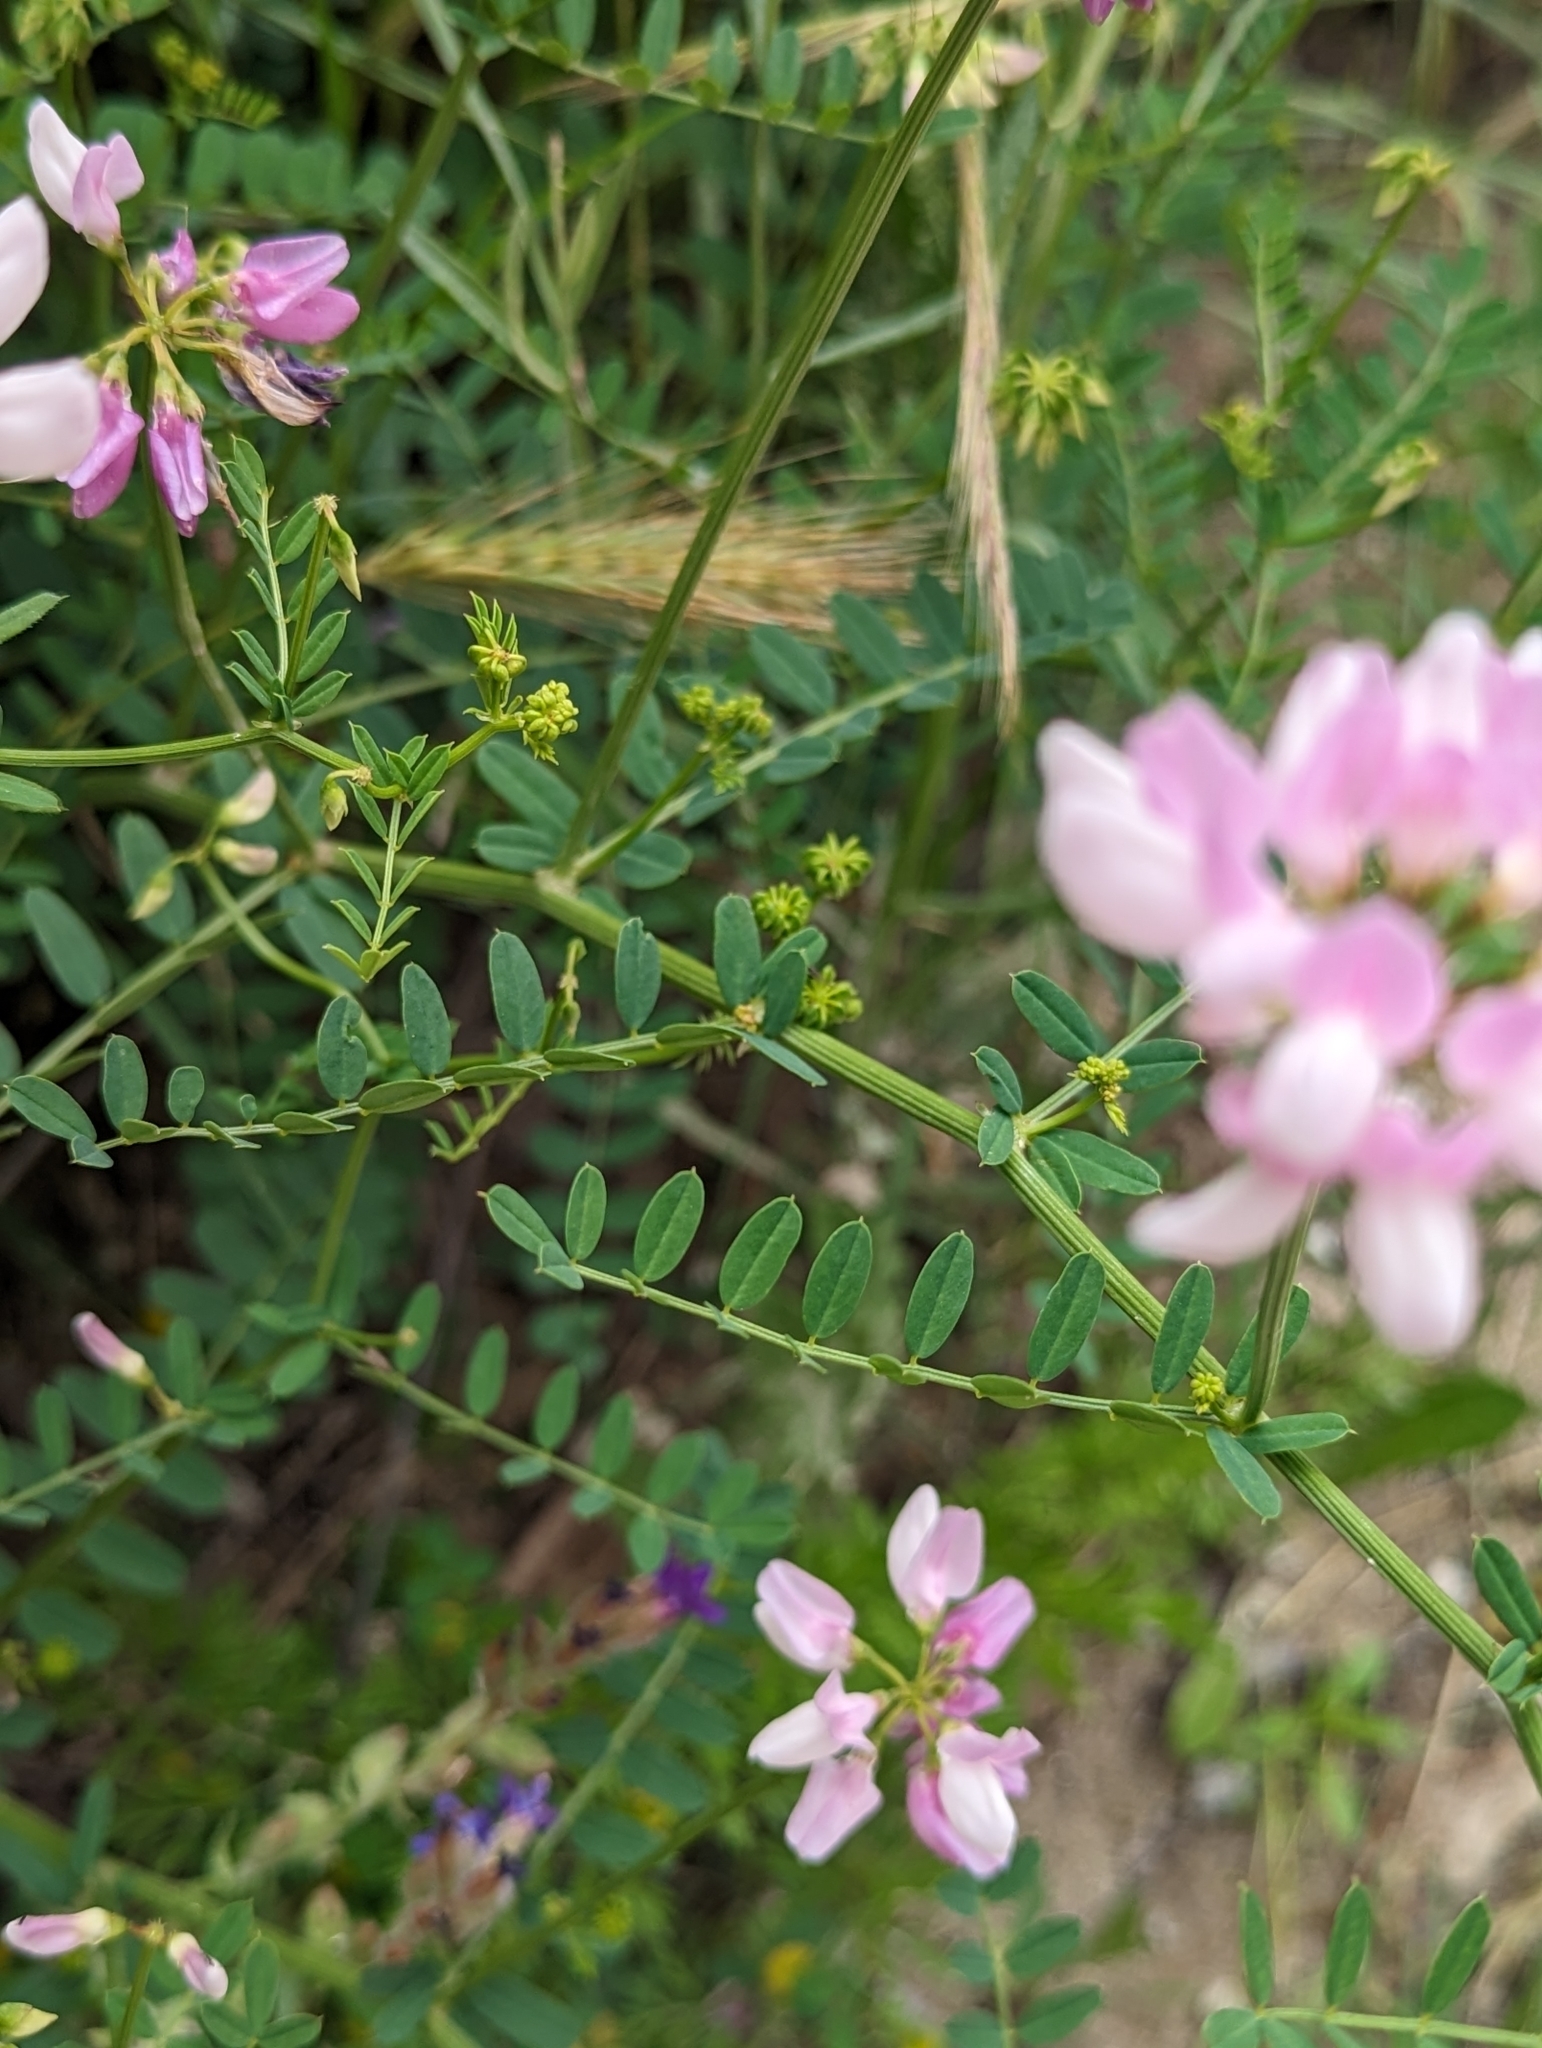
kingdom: Plantae
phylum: Tracheophyta
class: Magnoliopsida
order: Fabales
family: Fabaceae
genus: Coronilla
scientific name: Coronilla varia
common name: Crownvetch
